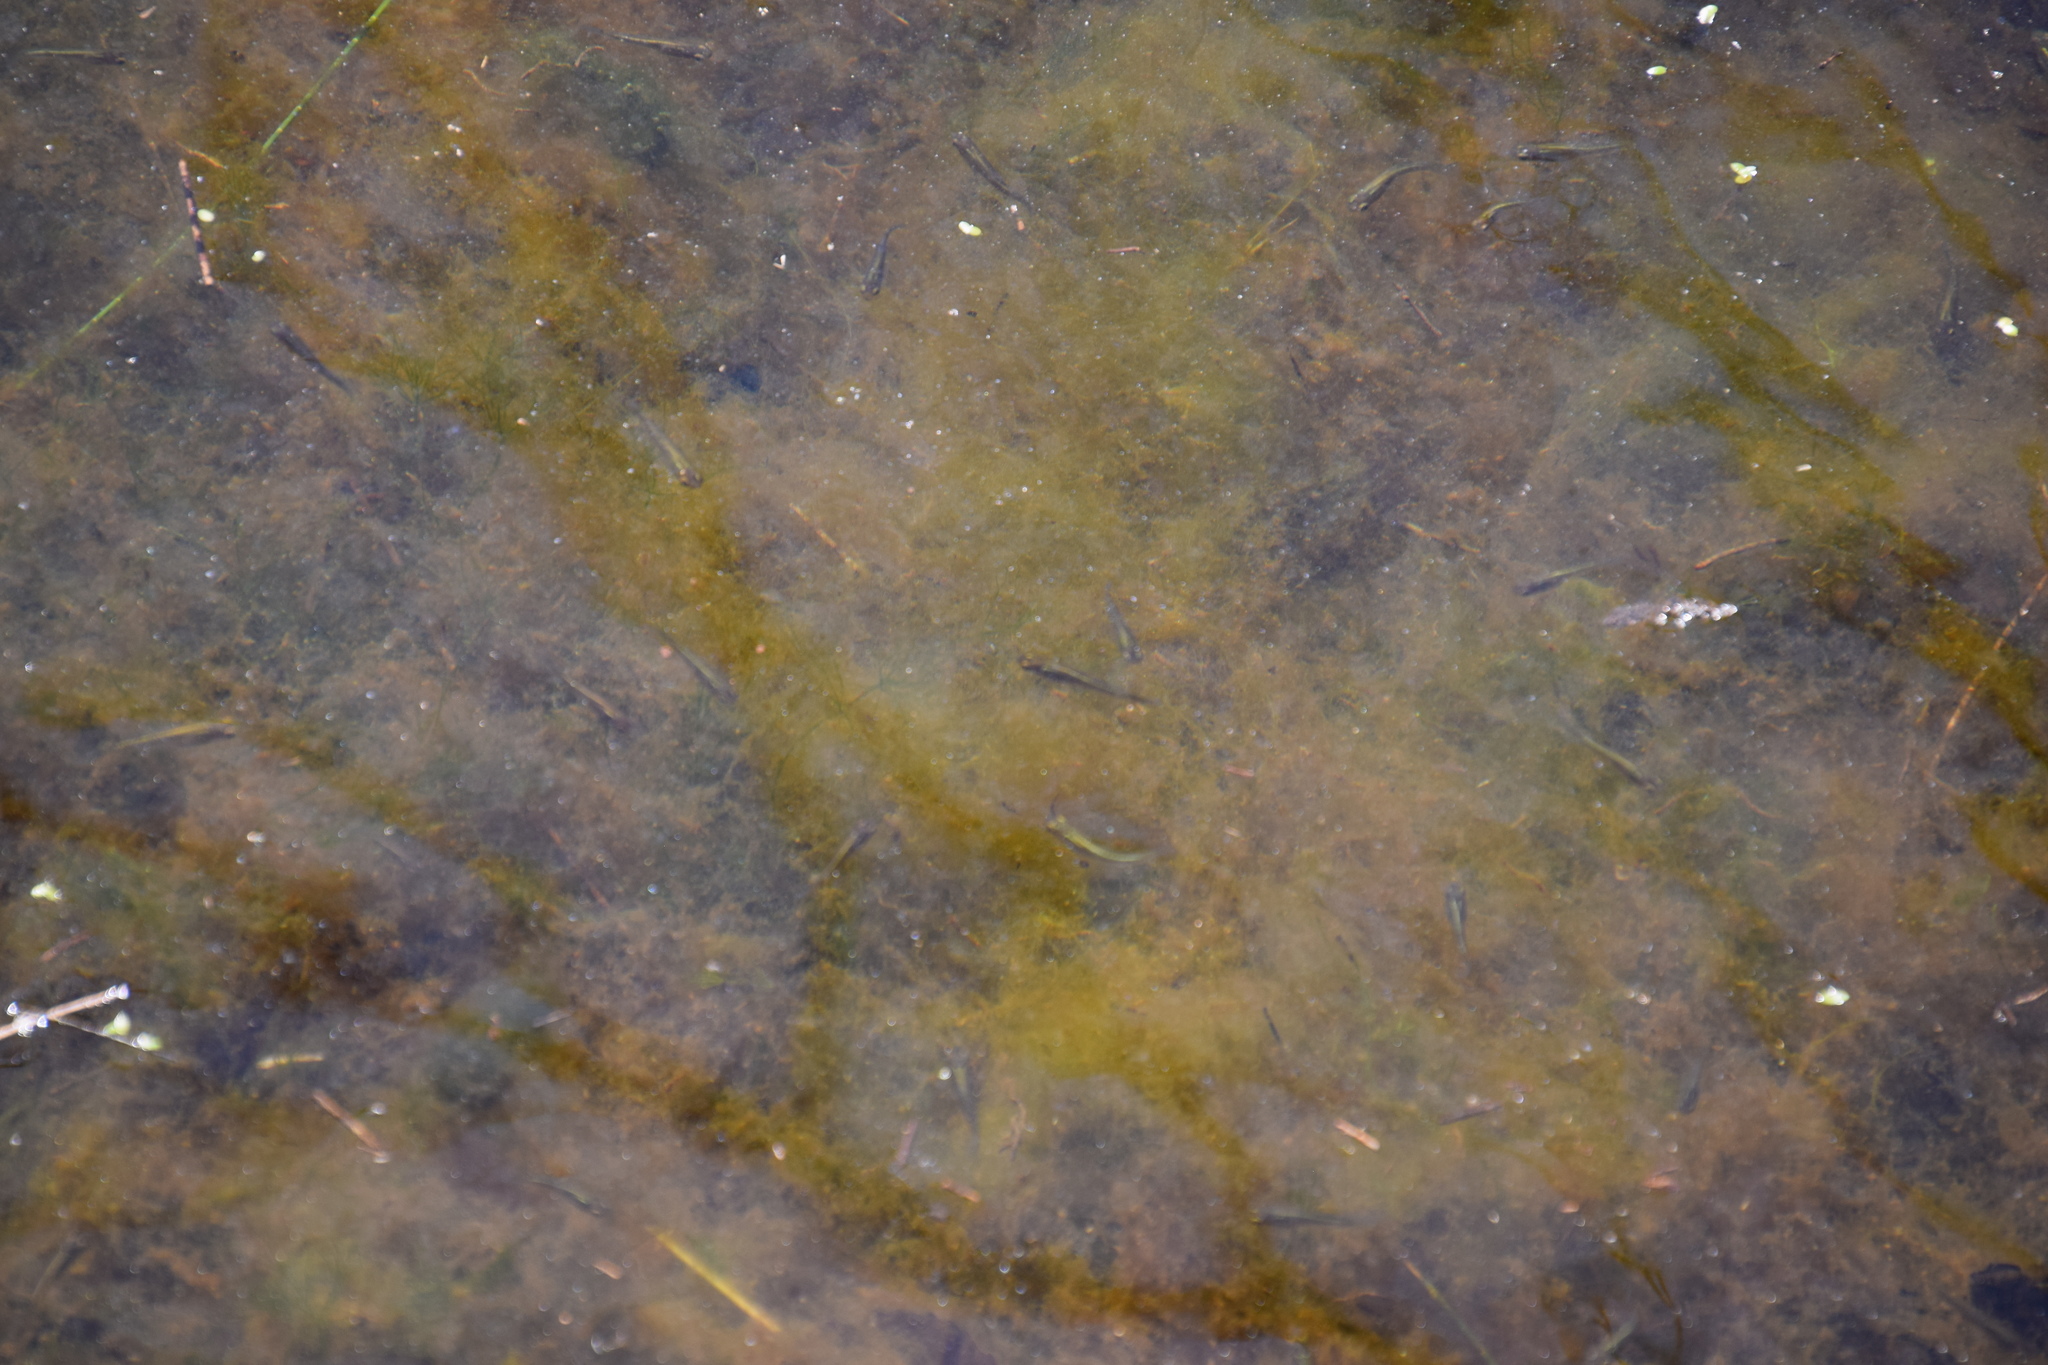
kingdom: Animalia
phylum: Chordata
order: Cyprinodontiformes
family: Poeciliidae
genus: Gambusia
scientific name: Gambusia holbrooki
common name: Eastern mosquitofish
